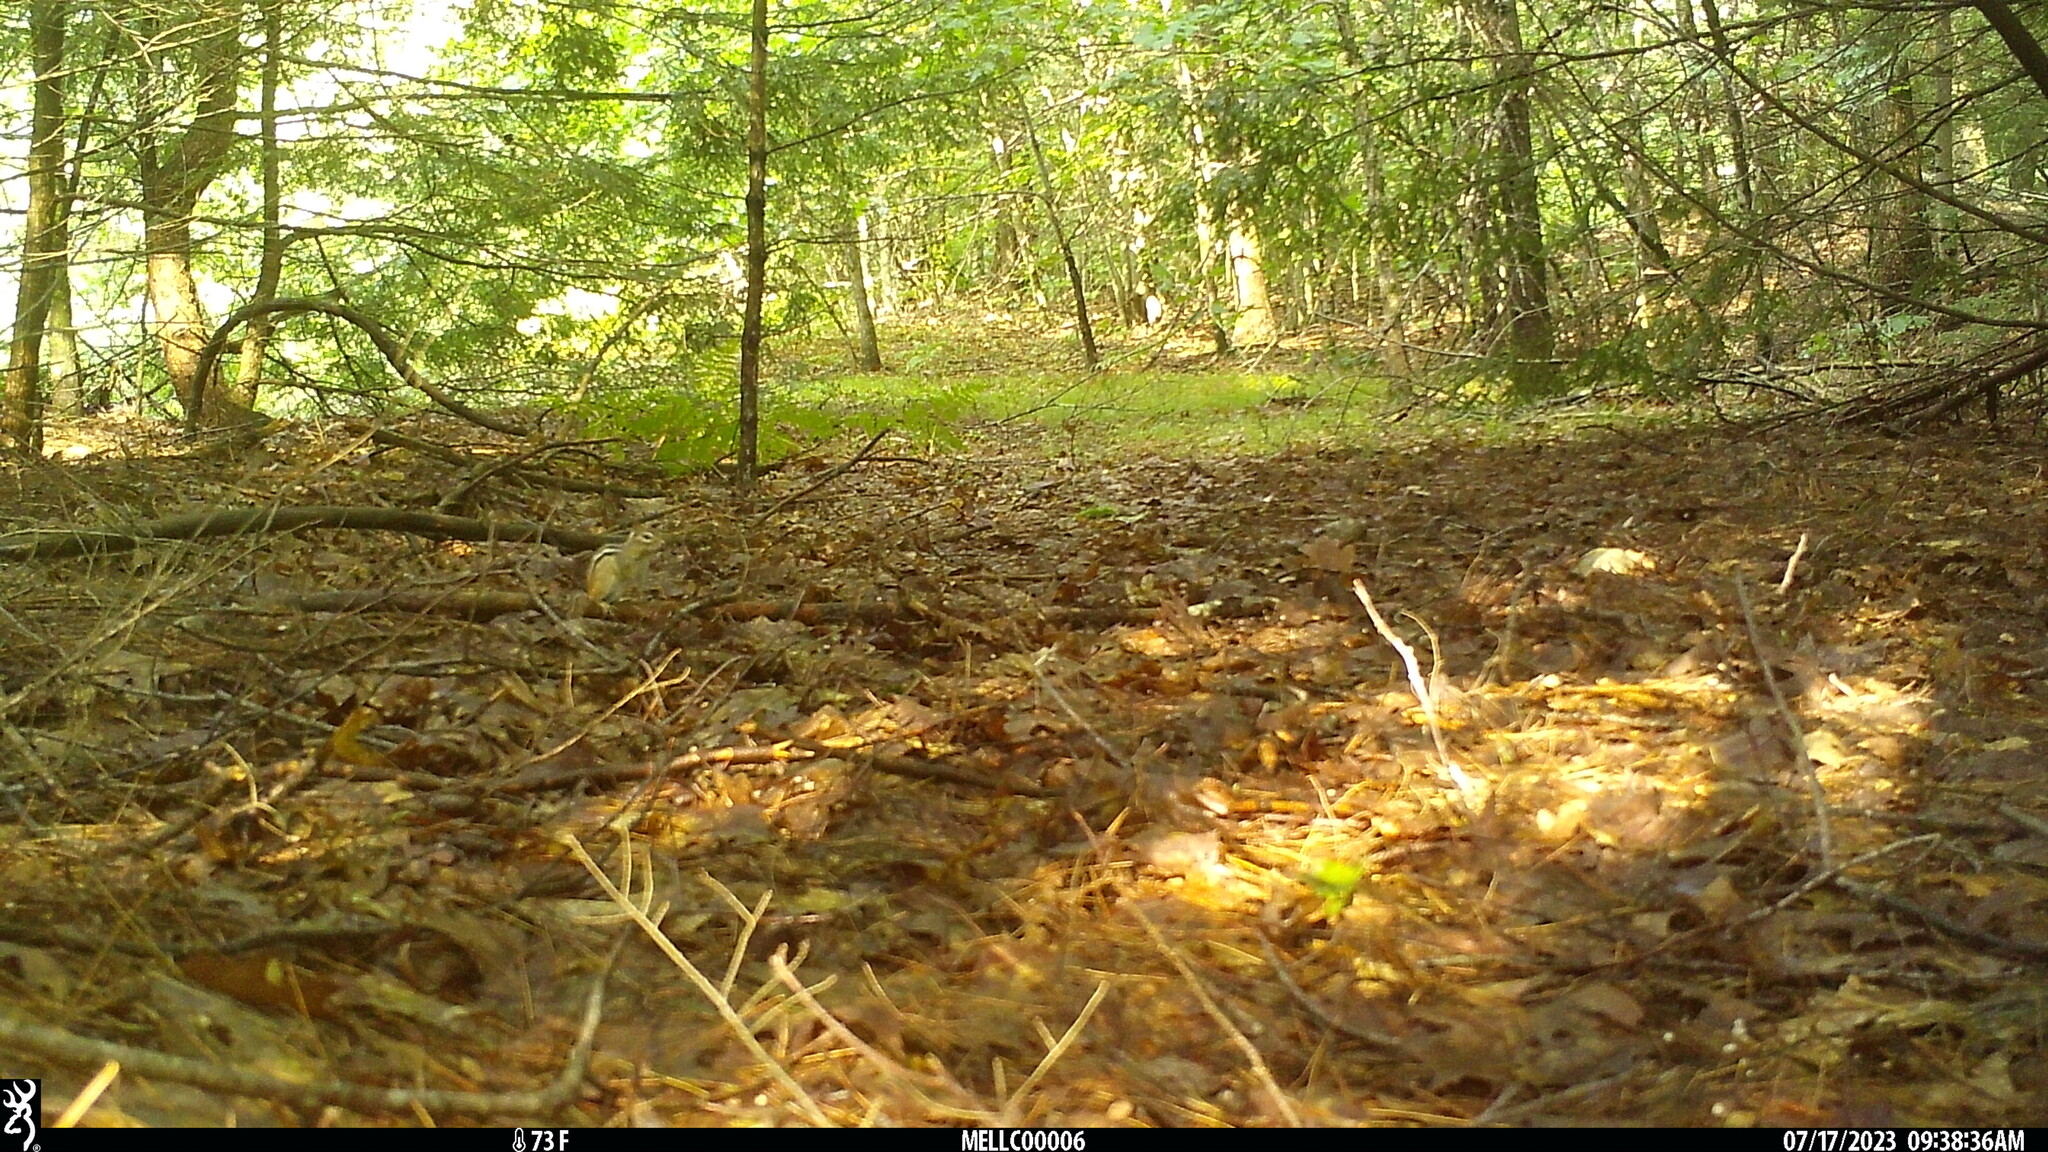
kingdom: Animalia
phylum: Chordata
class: Mammalia
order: Rodentia
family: Sciuridae
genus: Tamias
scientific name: Tamias striatus
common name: Eastern chipmunk
